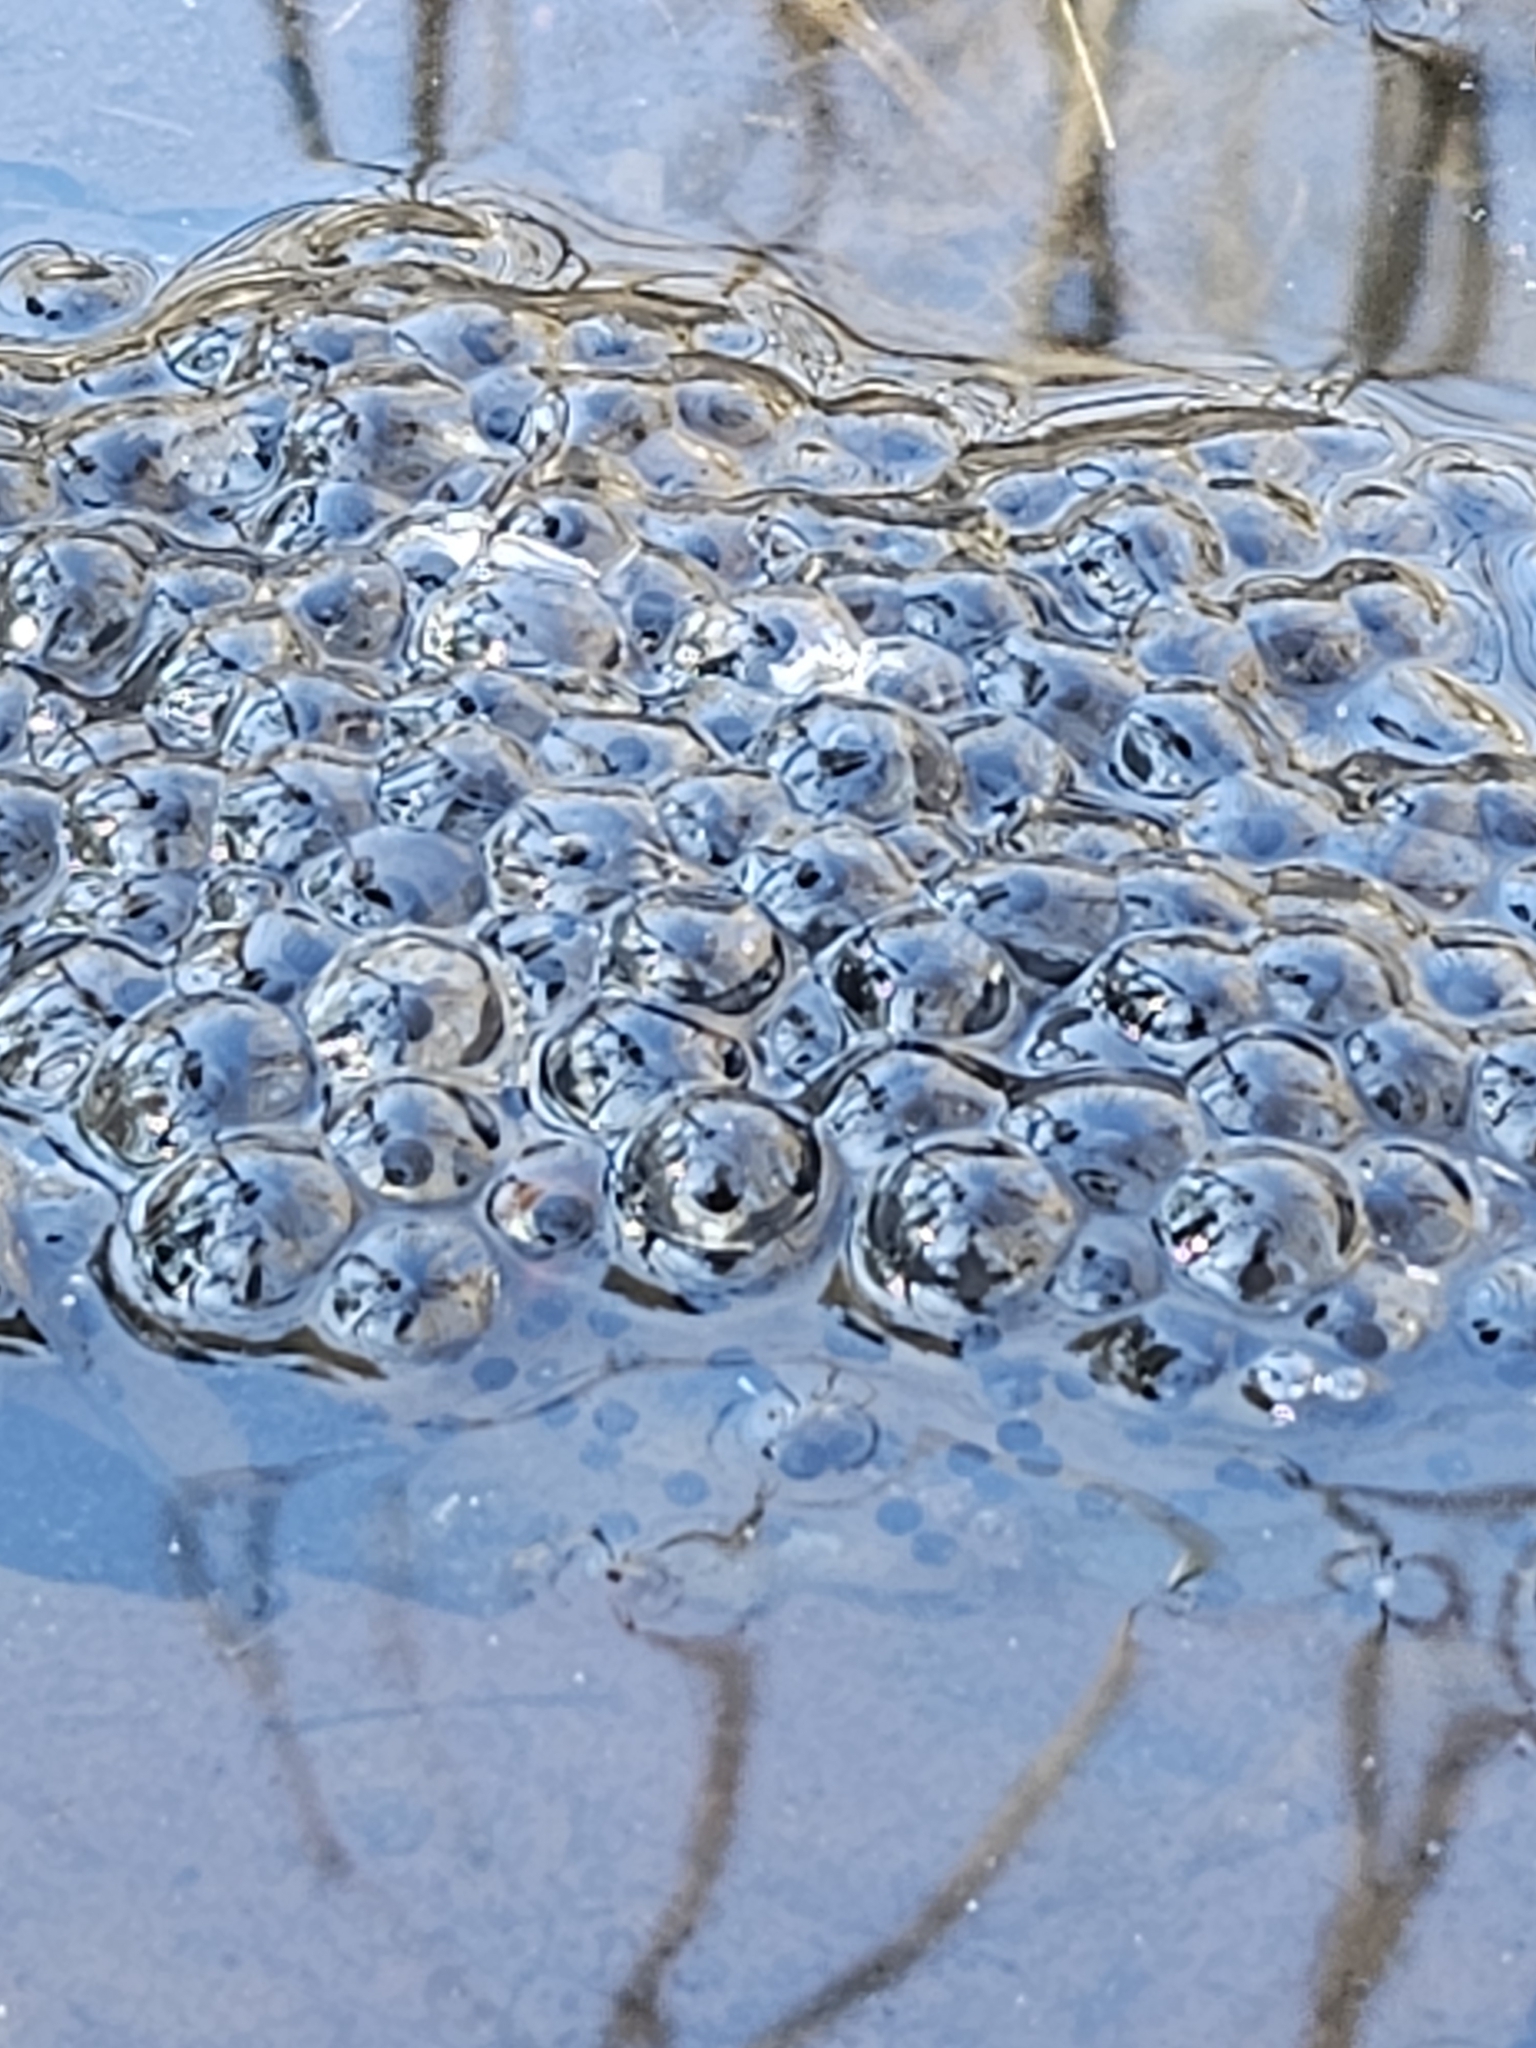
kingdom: Animalia
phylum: Chordata
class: Amphibia
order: Anura
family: Ranidae
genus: Lithobates
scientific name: Lithobates sylvaticus
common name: Wood frog
